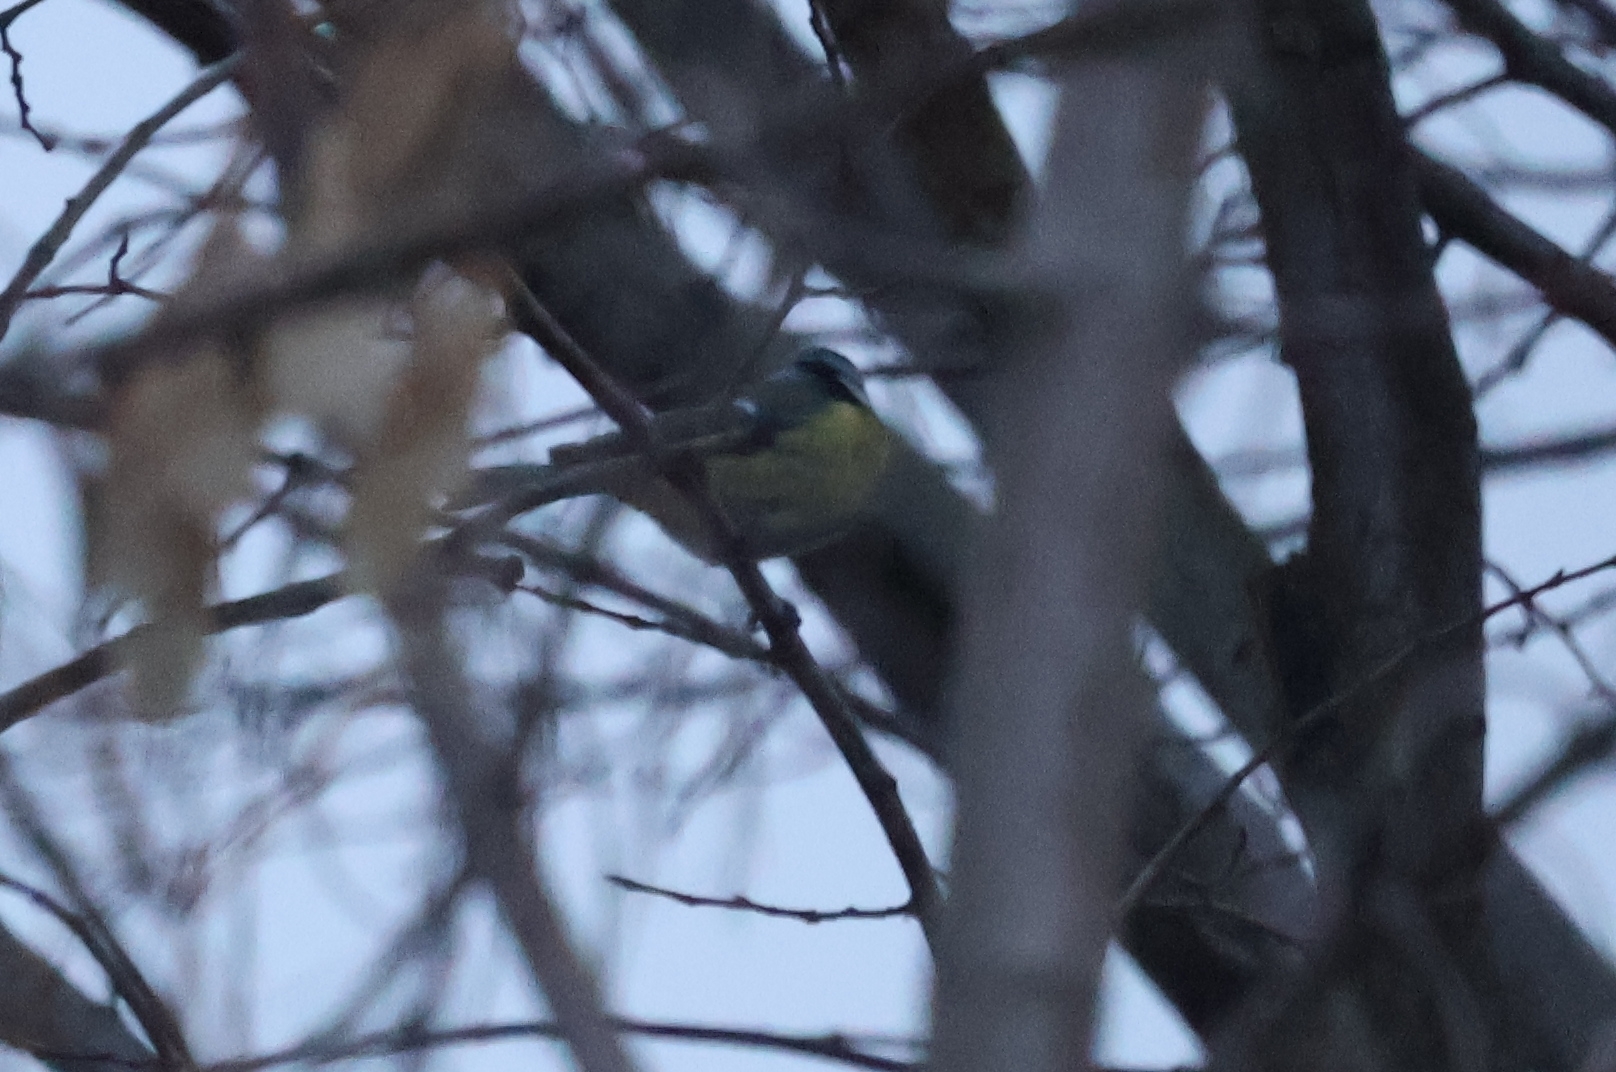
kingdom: Animalia
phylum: Chordata
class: Aves
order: Passeriformes
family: Paridae
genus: Cyanistes
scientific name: Cyanistes caeruleus
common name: Eurasian blue tit
